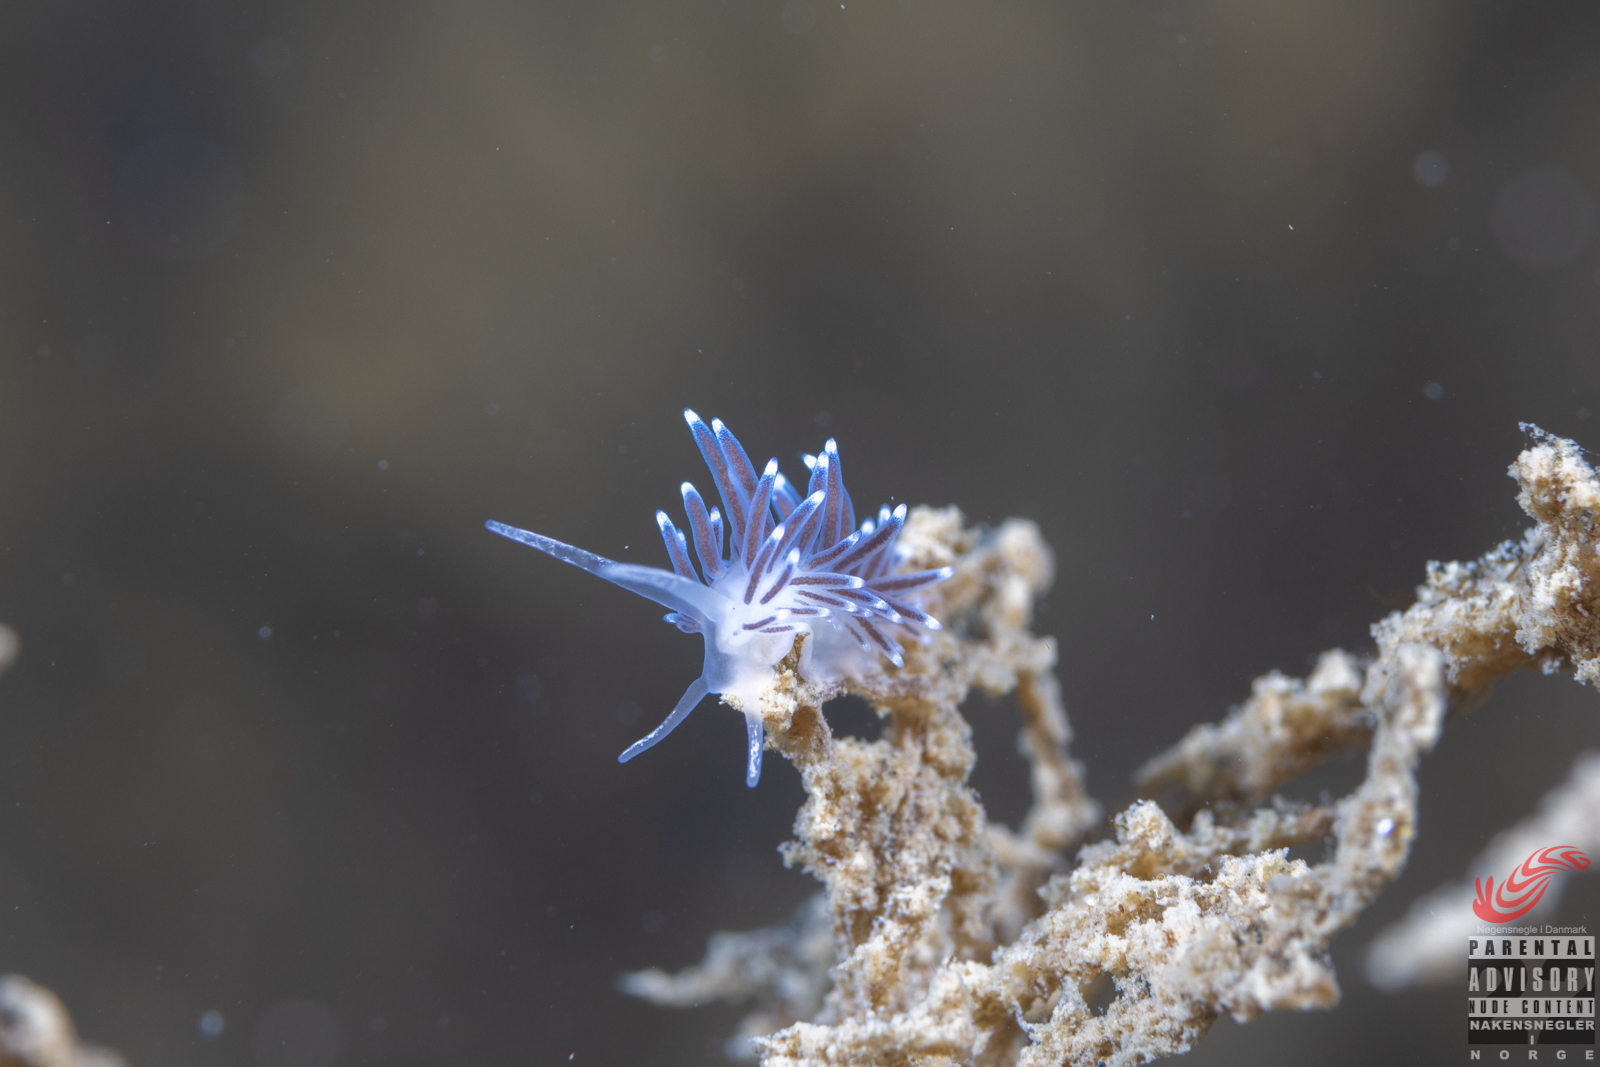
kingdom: Animalia
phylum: Mollusca
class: Gastropoda
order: Nudibranchia
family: Cuthonellidae
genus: Cuthonella
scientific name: Cuthonella concinna
